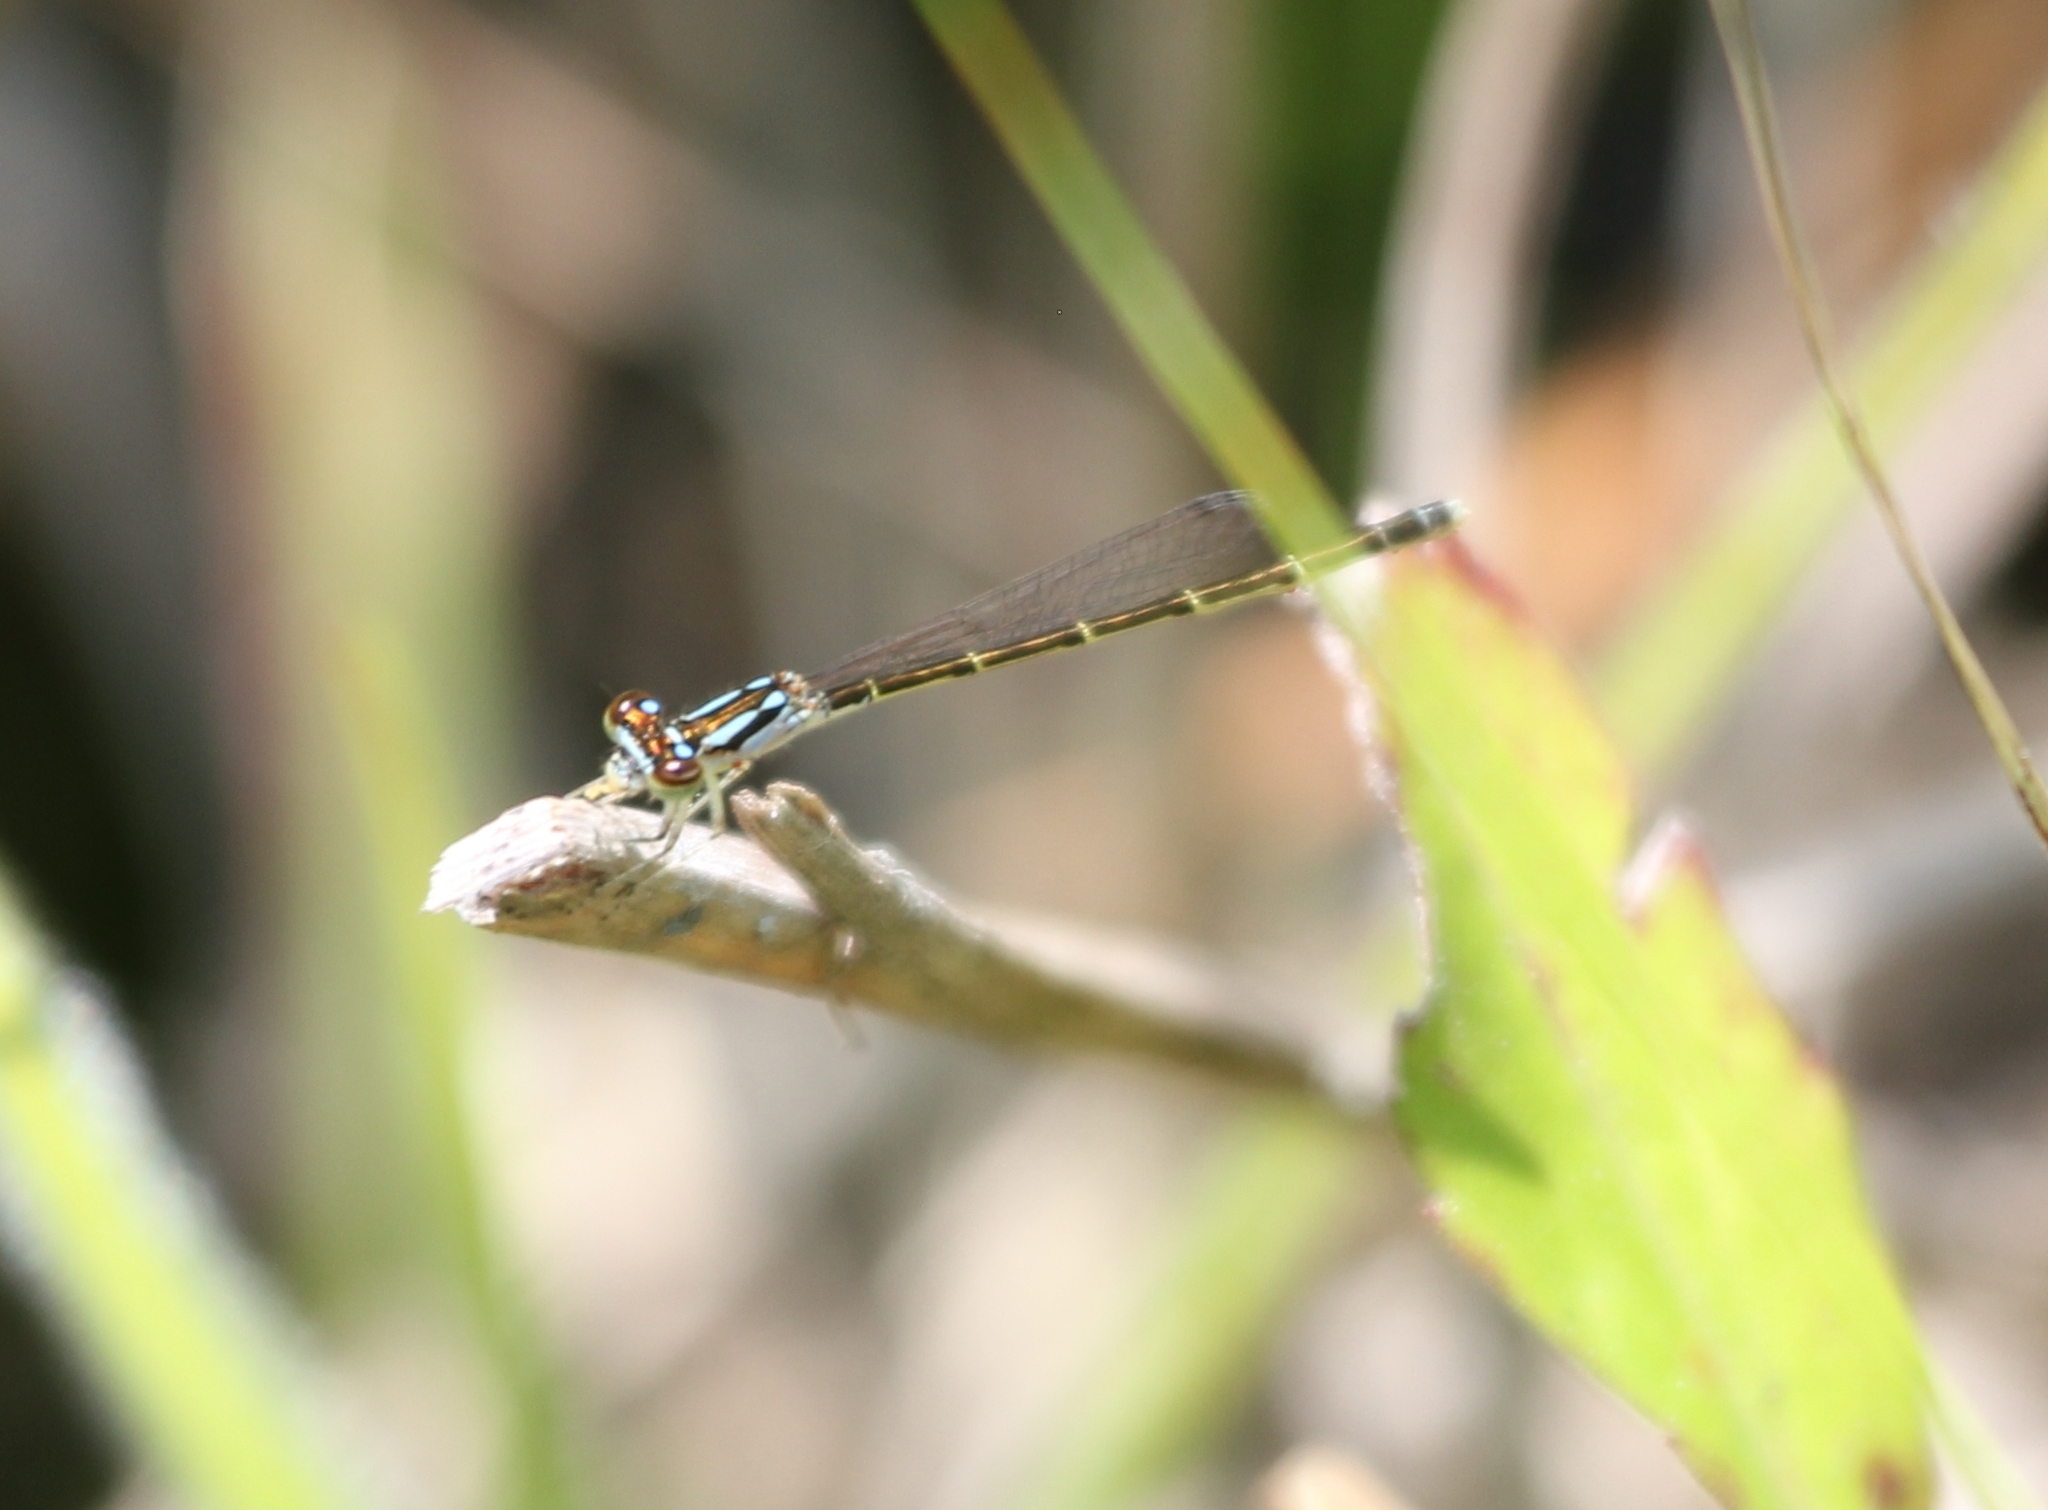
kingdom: Animalia
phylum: Arthropoda
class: Insecta
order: Odonata
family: Coenagrionidae
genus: Ischnura
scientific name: Ischnura posita
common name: Fragile forktail
